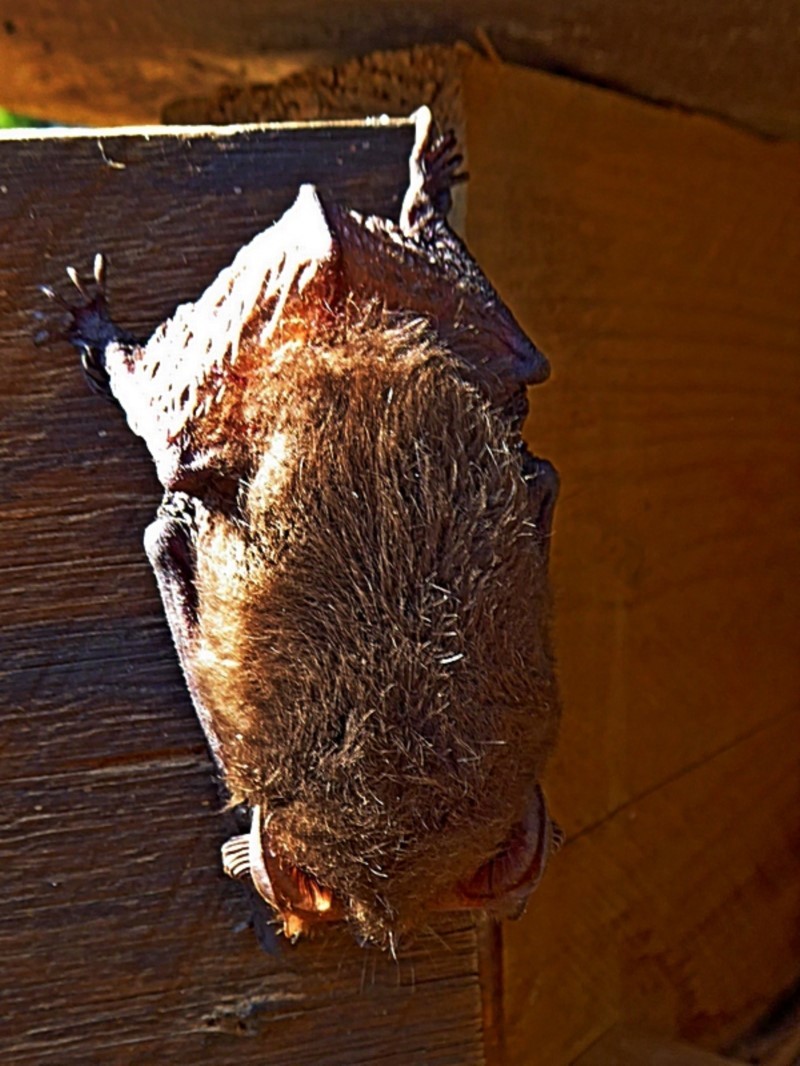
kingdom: Animalia
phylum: Chordata
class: Mammalia
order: Chiroptera
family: Vespertilionidae
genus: Nyctophilus
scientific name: Nyctophilus geoffroyi
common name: Lesser long-eared bat
